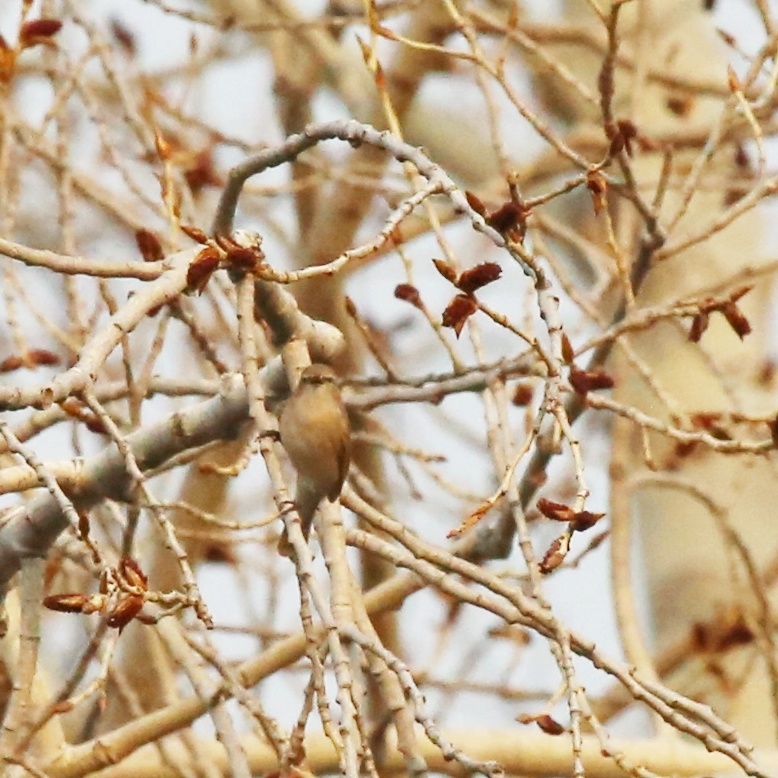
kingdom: Animalia
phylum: Chordata
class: Aves
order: Passeriformes
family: Phylloscopidae
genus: Phylloscopus
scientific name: Phylloscopus collybita
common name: Common chiffchaff
